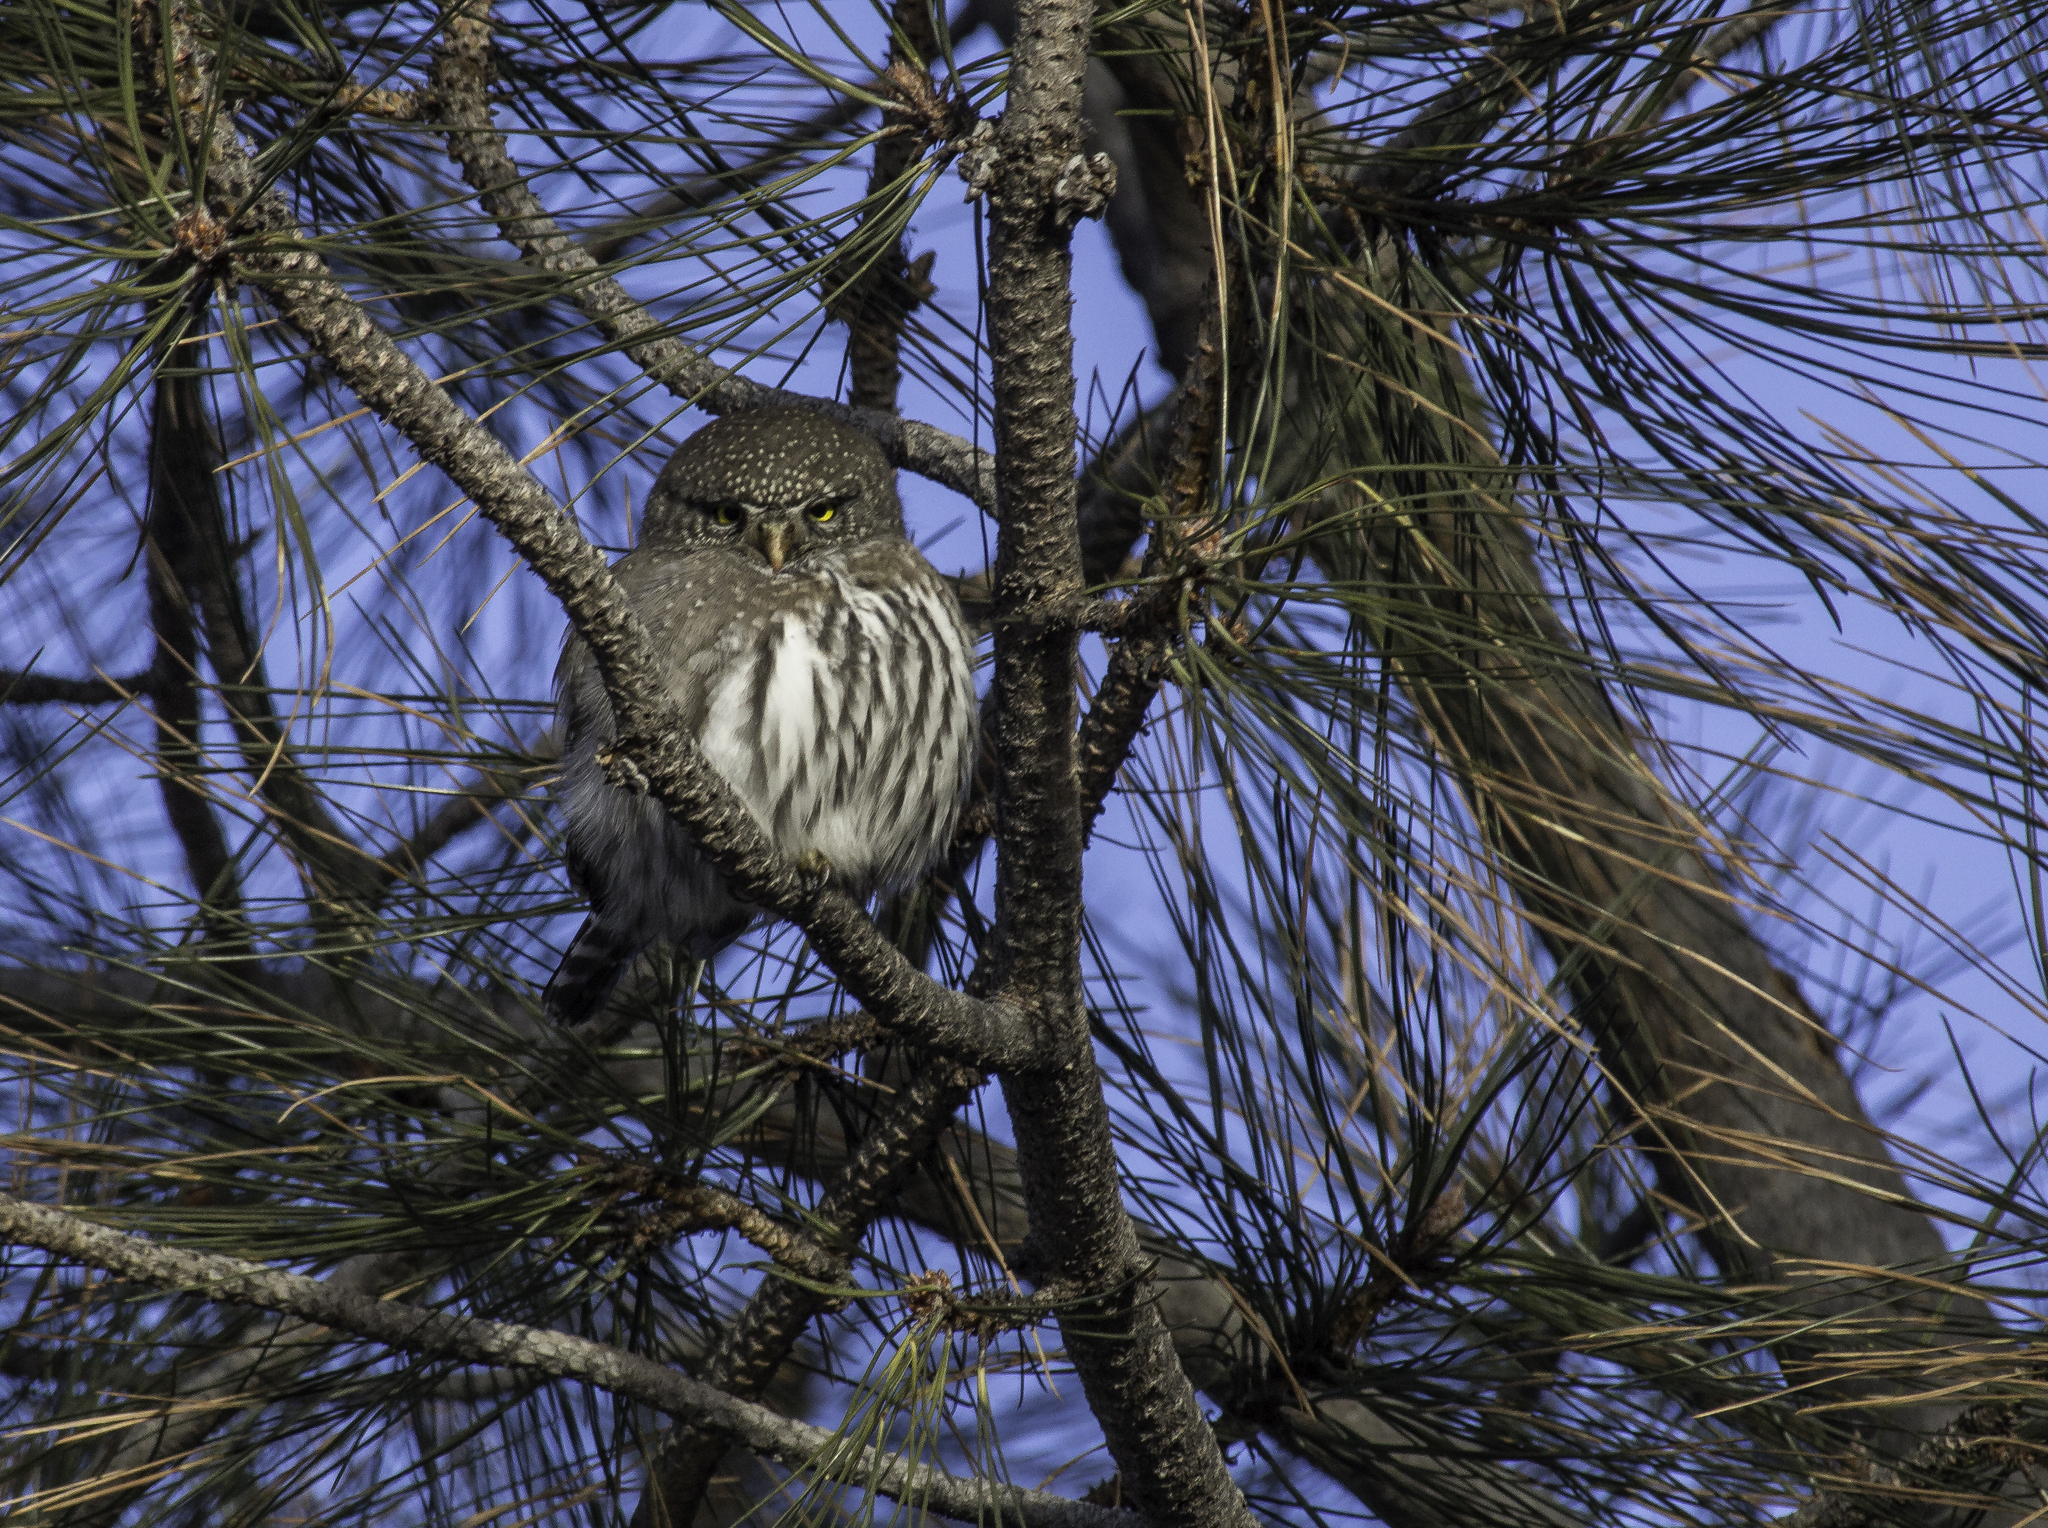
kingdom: Animalia
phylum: Chordata
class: Aves
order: Strigiformes
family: Strigidae
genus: Glaucidium
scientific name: Glaucidium gnoma
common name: Northern pygmy-owl
